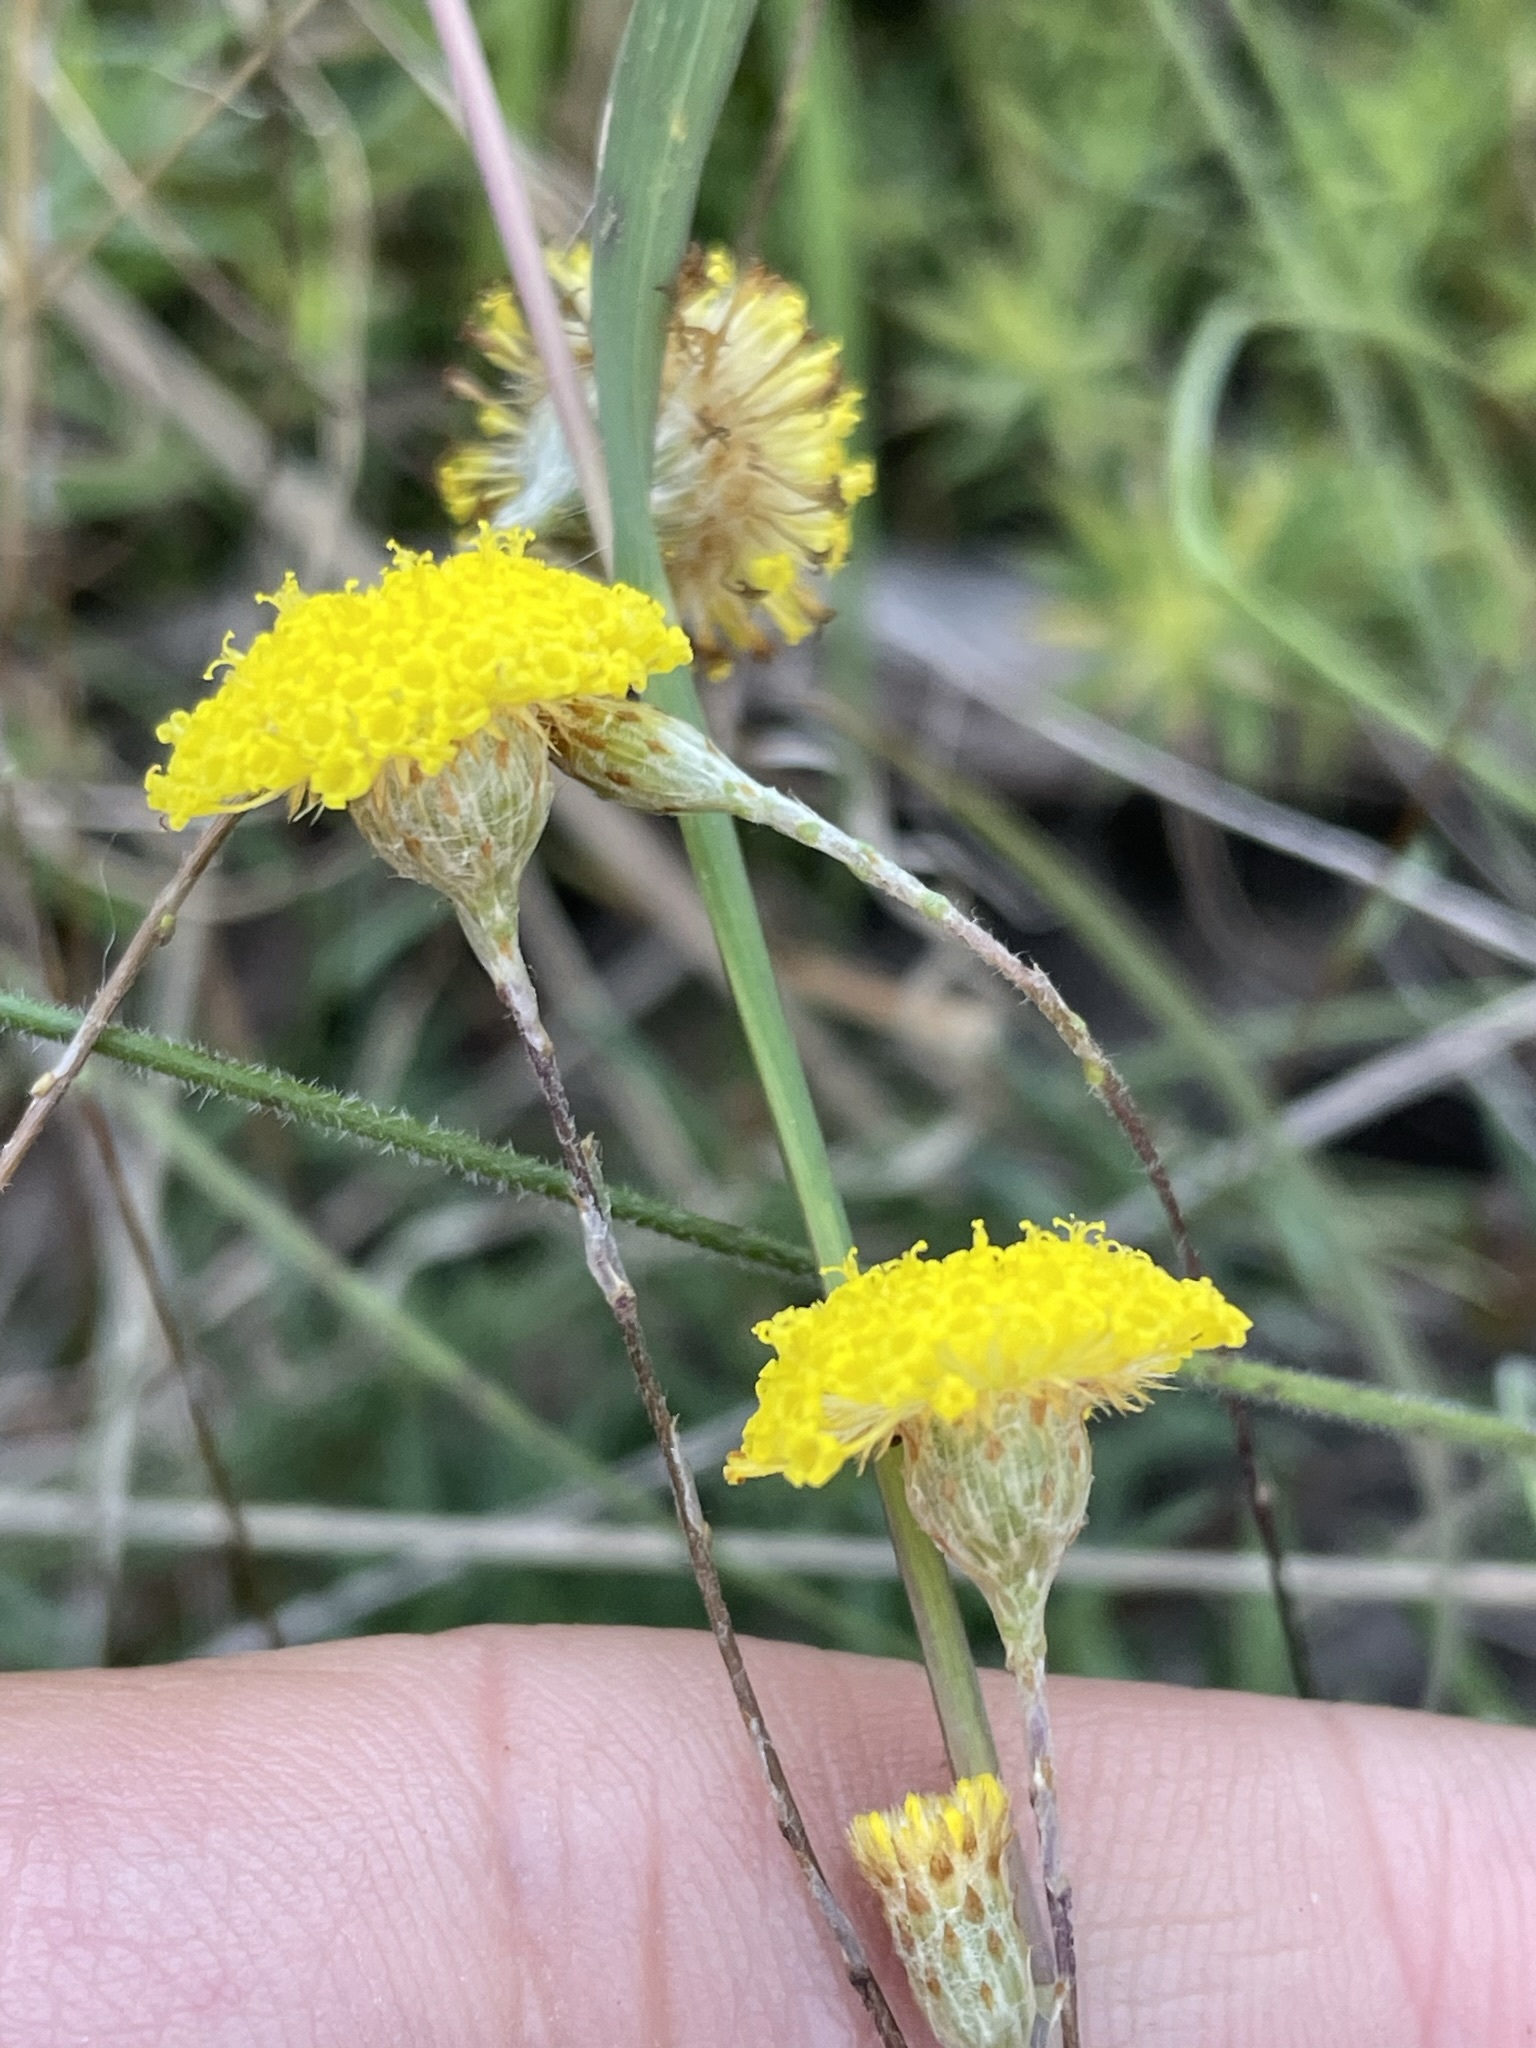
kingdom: Plantae
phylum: Tracheophyta
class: Magnoliopsida
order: Asterales
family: Asteraceae
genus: Leptorhynchos
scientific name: Leptorhynchos squamatus
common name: Scaly-buttons
